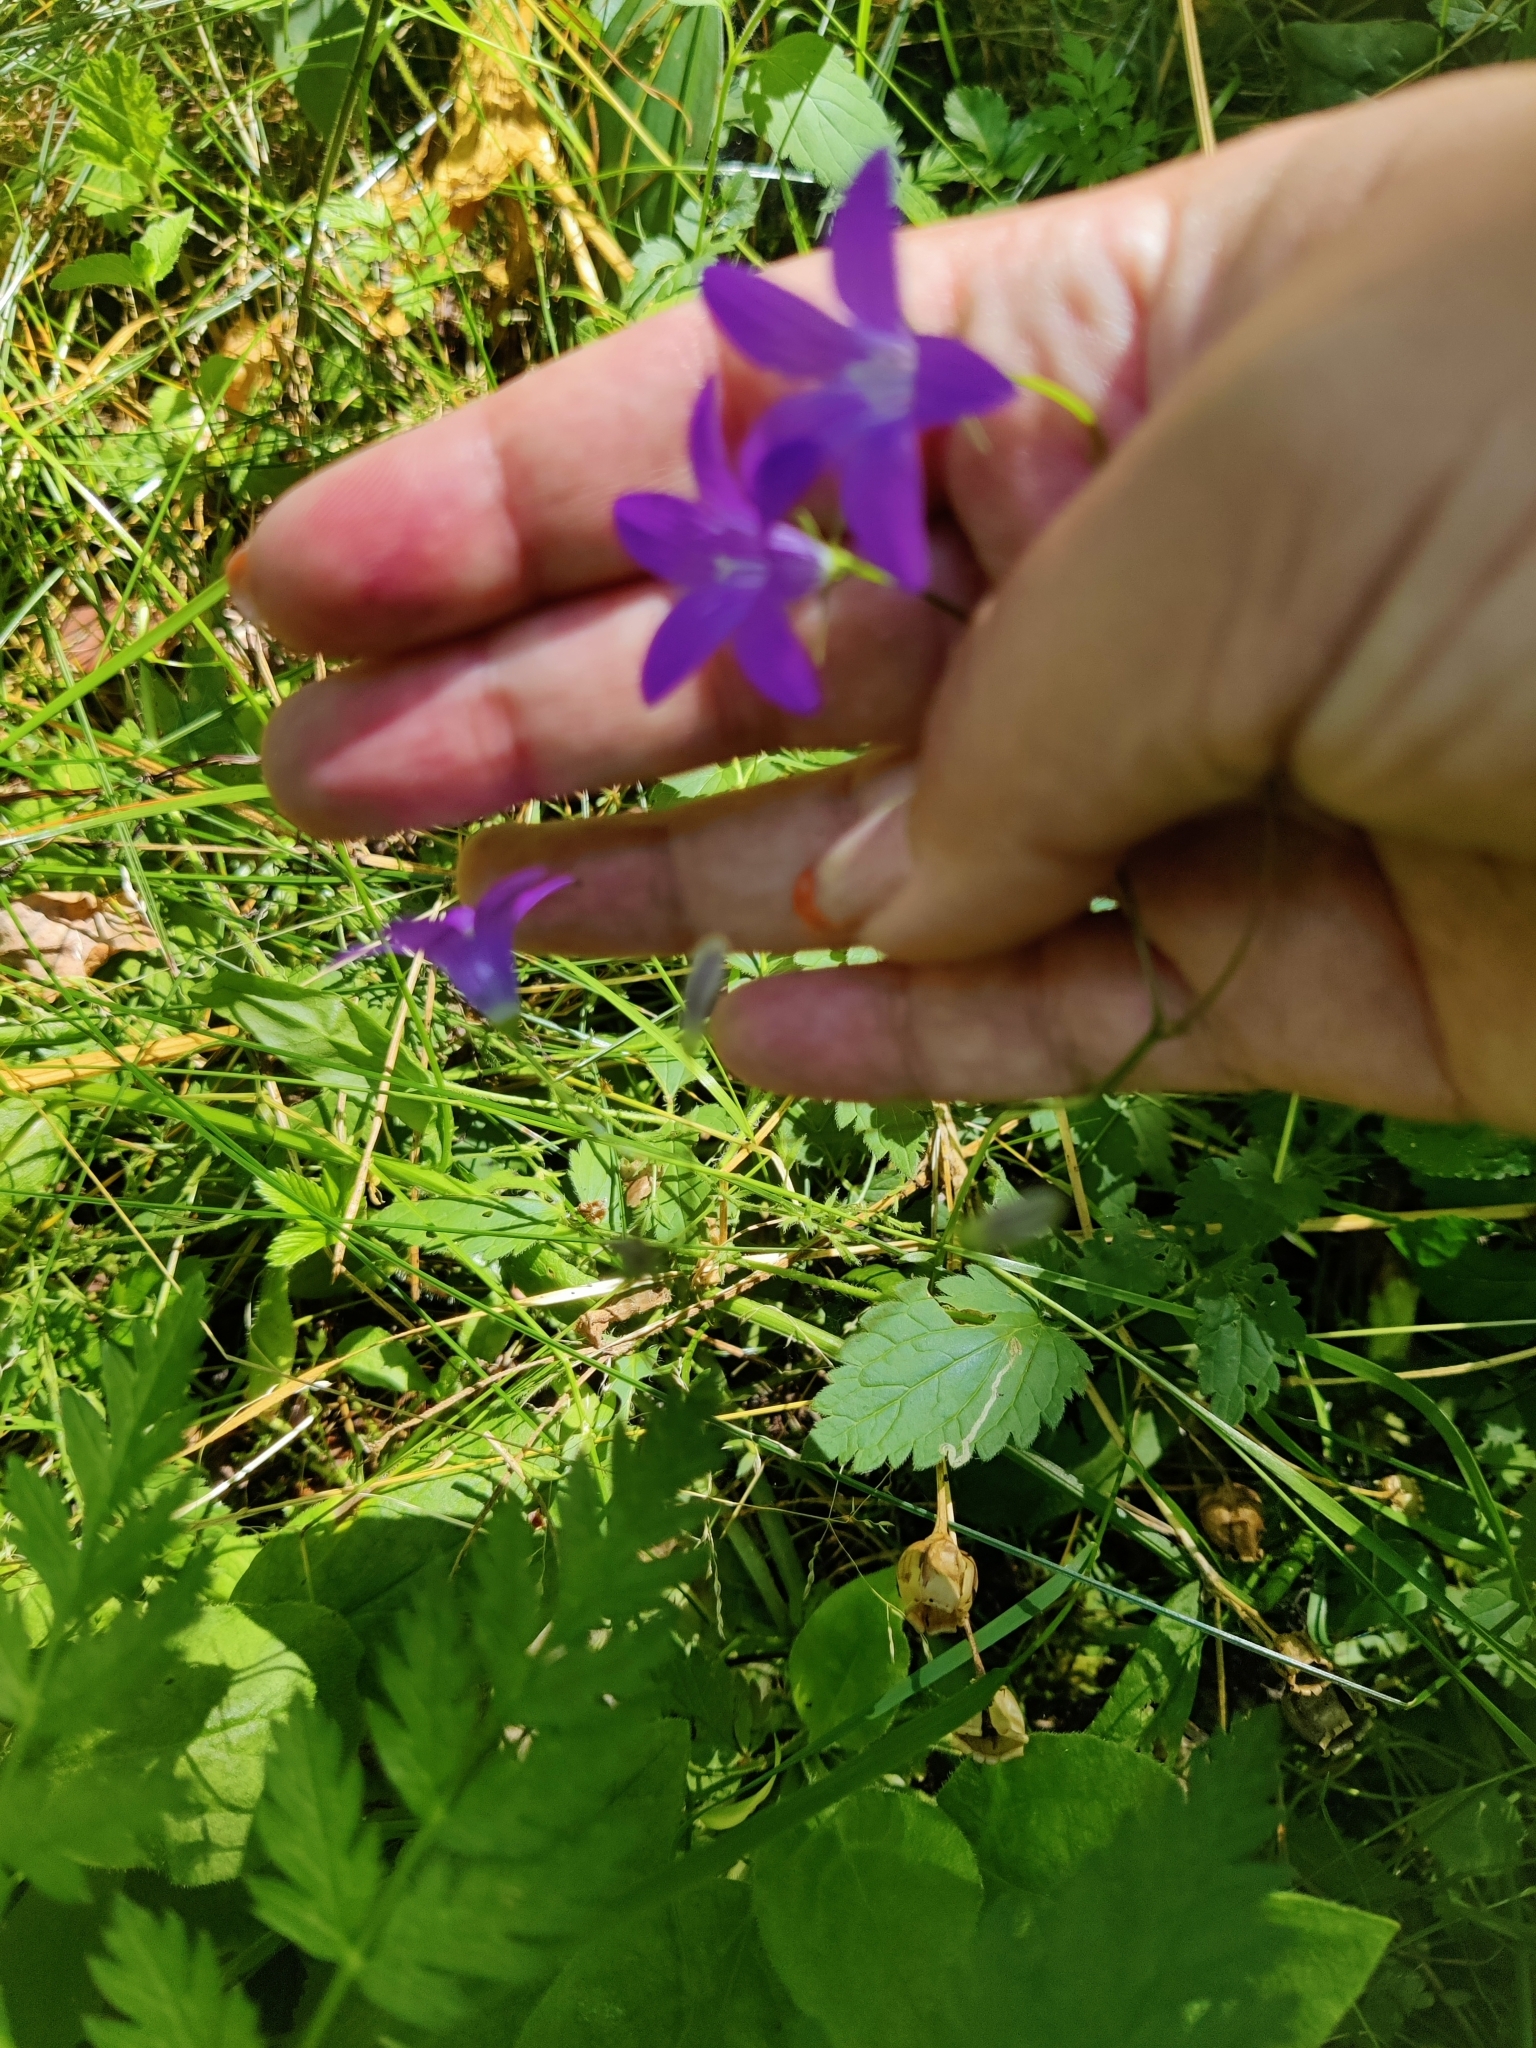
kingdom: Plantae
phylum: Tracheophyta
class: Magnoliopsida
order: Asterales
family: Campanulaceae
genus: Campanula
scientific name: Campanula patula
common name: Spreading bellflower
